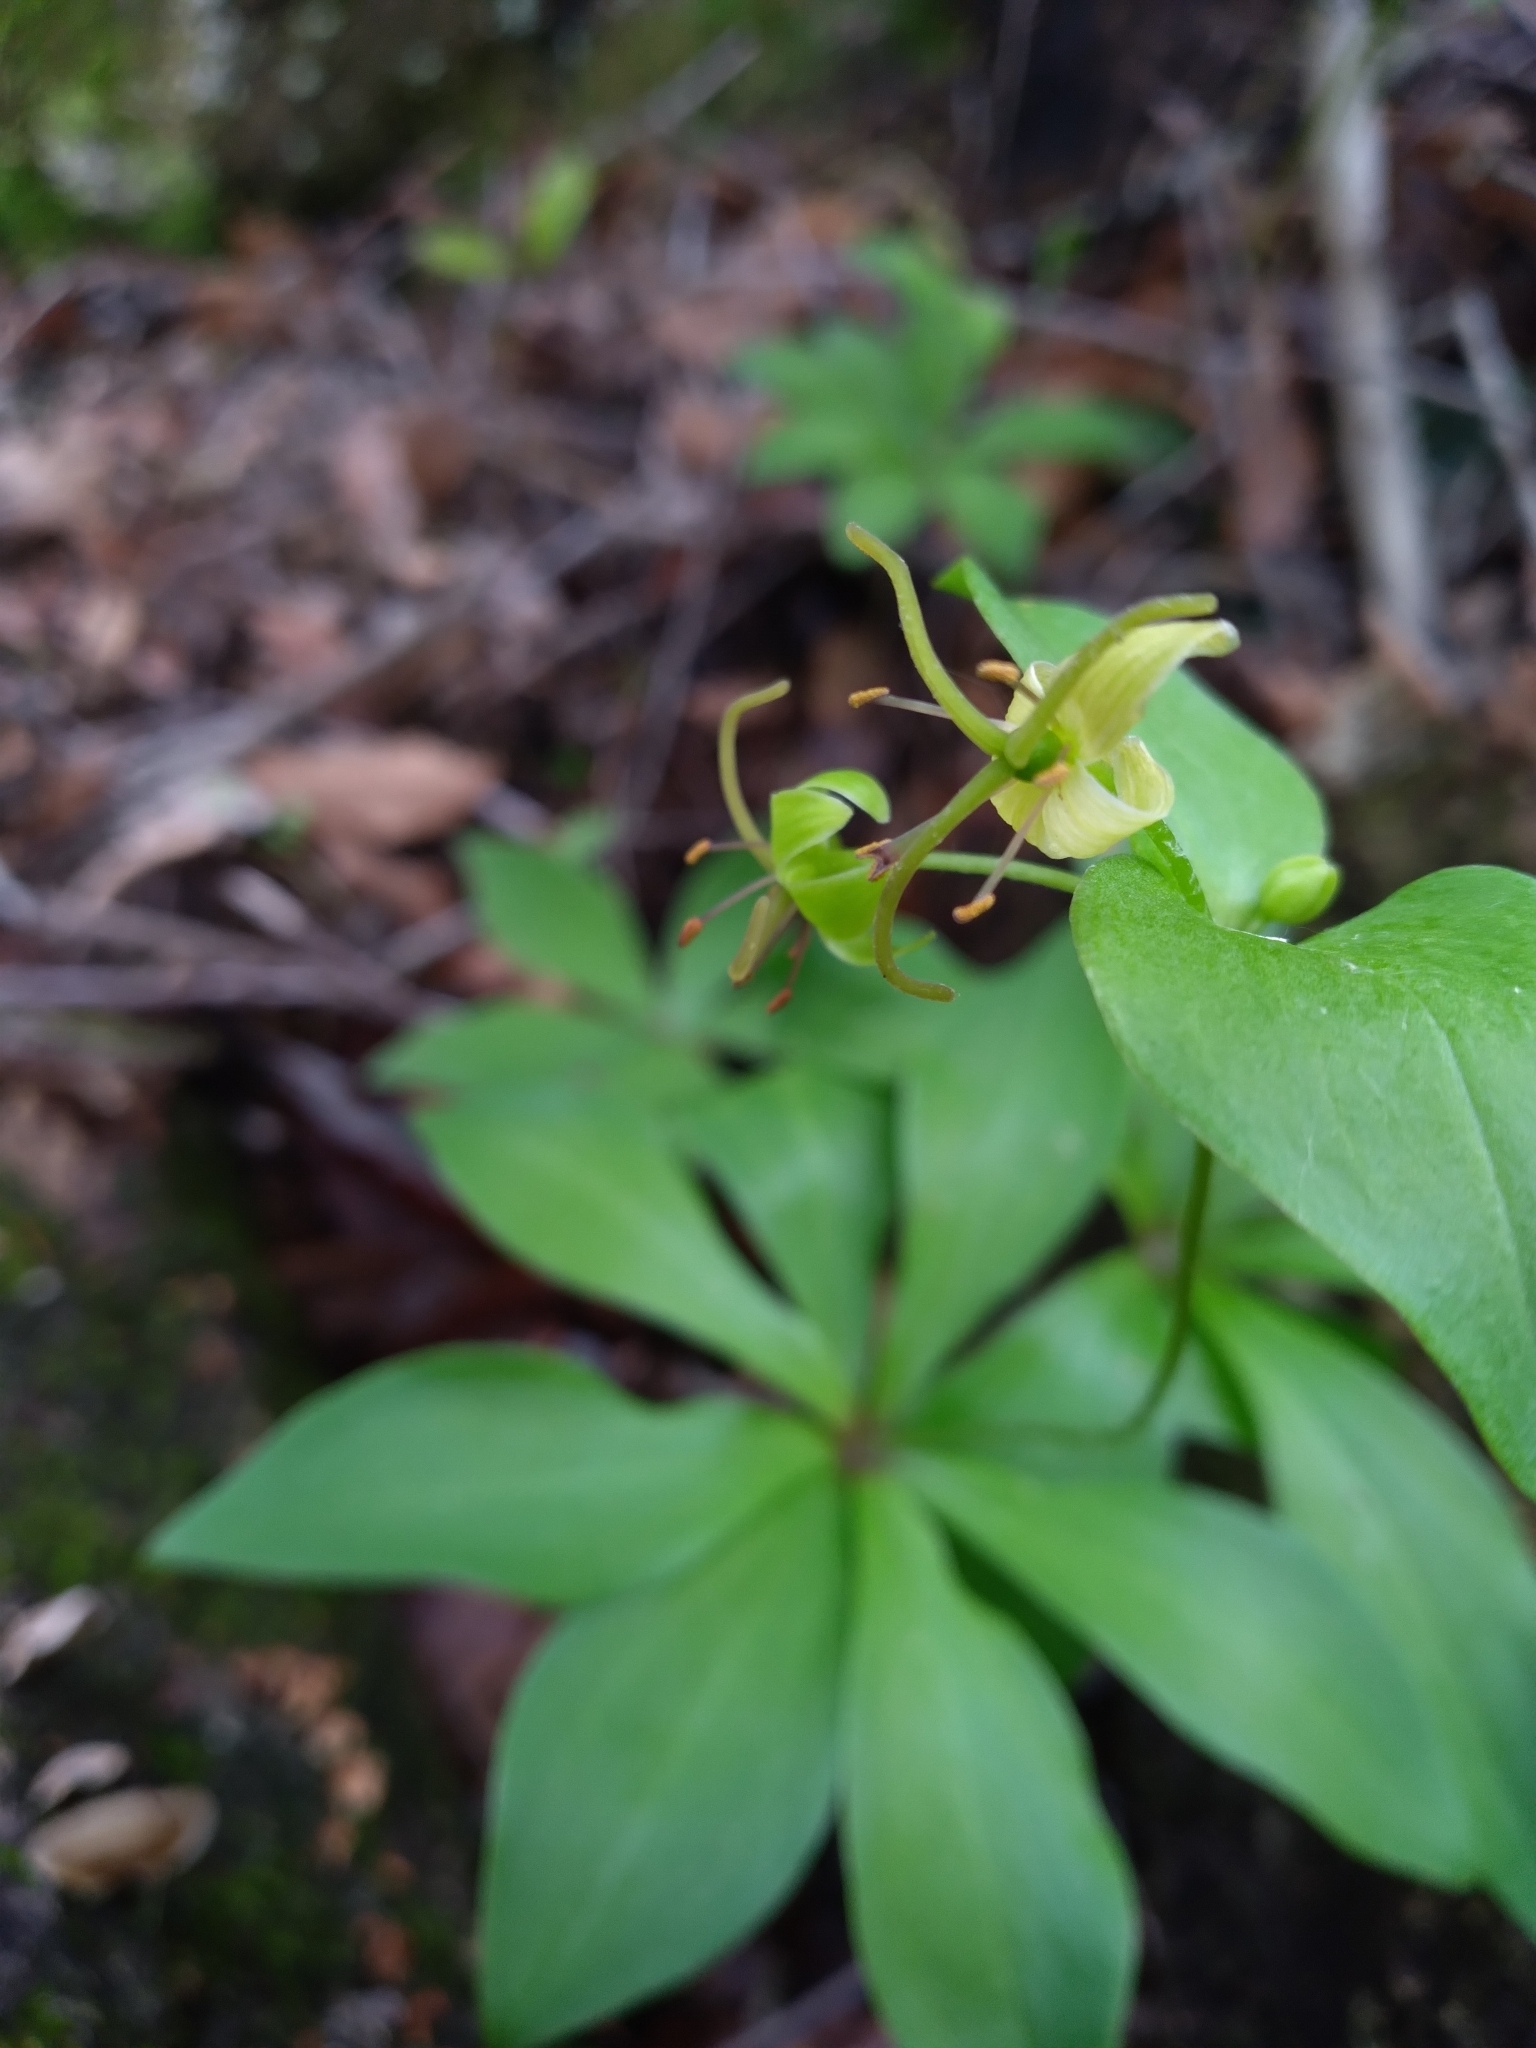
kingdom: Plantae
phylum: Tracheophyta
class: Liliopsida
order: Liliales
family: Liliaceae
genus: Medeola
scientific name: Medeola virginiana
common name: Indian cucumber-root
